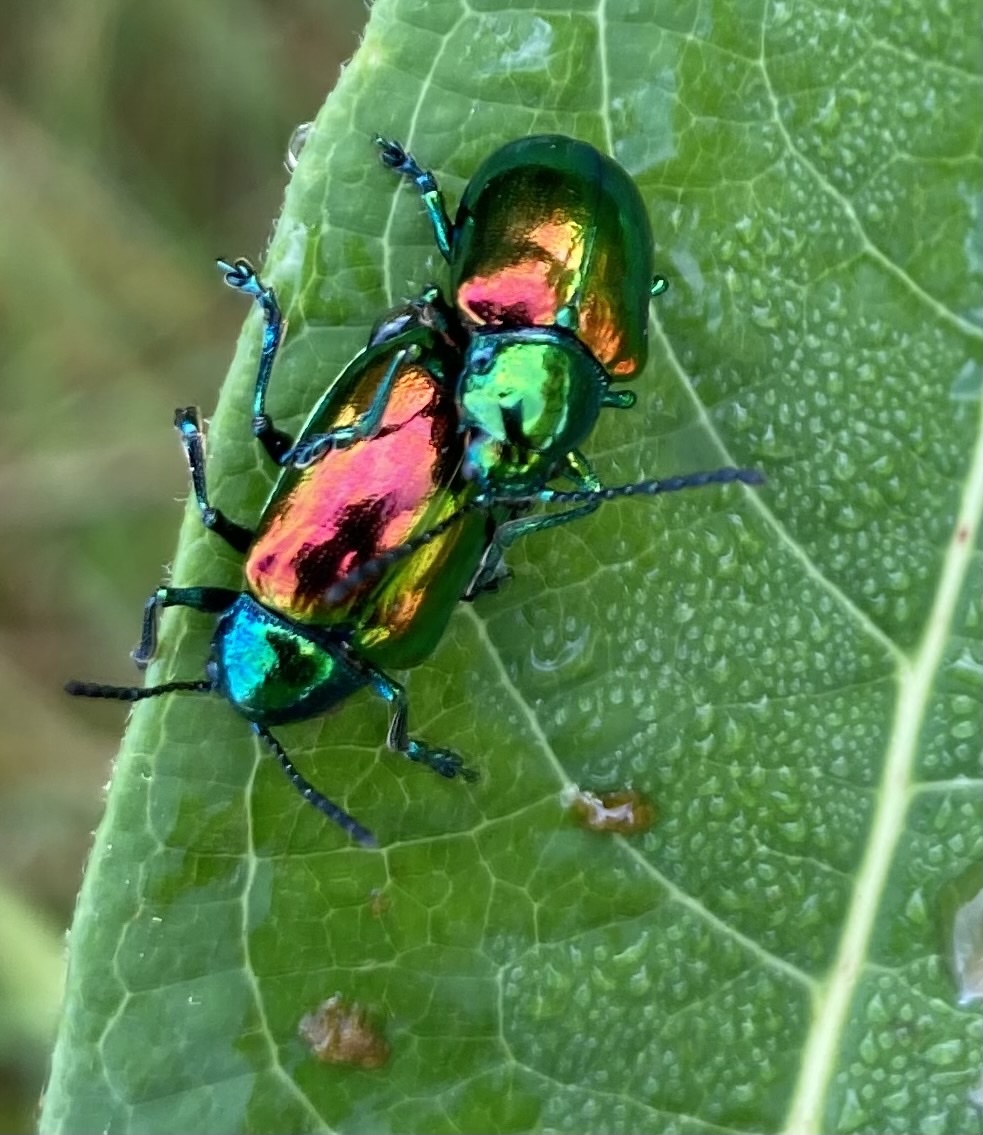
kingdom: Animalia
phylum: Arthropoda
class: Insecta
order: Coleoptera
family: Chrysomelidae
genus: Chrysochus
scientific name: Chrysochus auratus
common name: Dogbane leaf beetle
